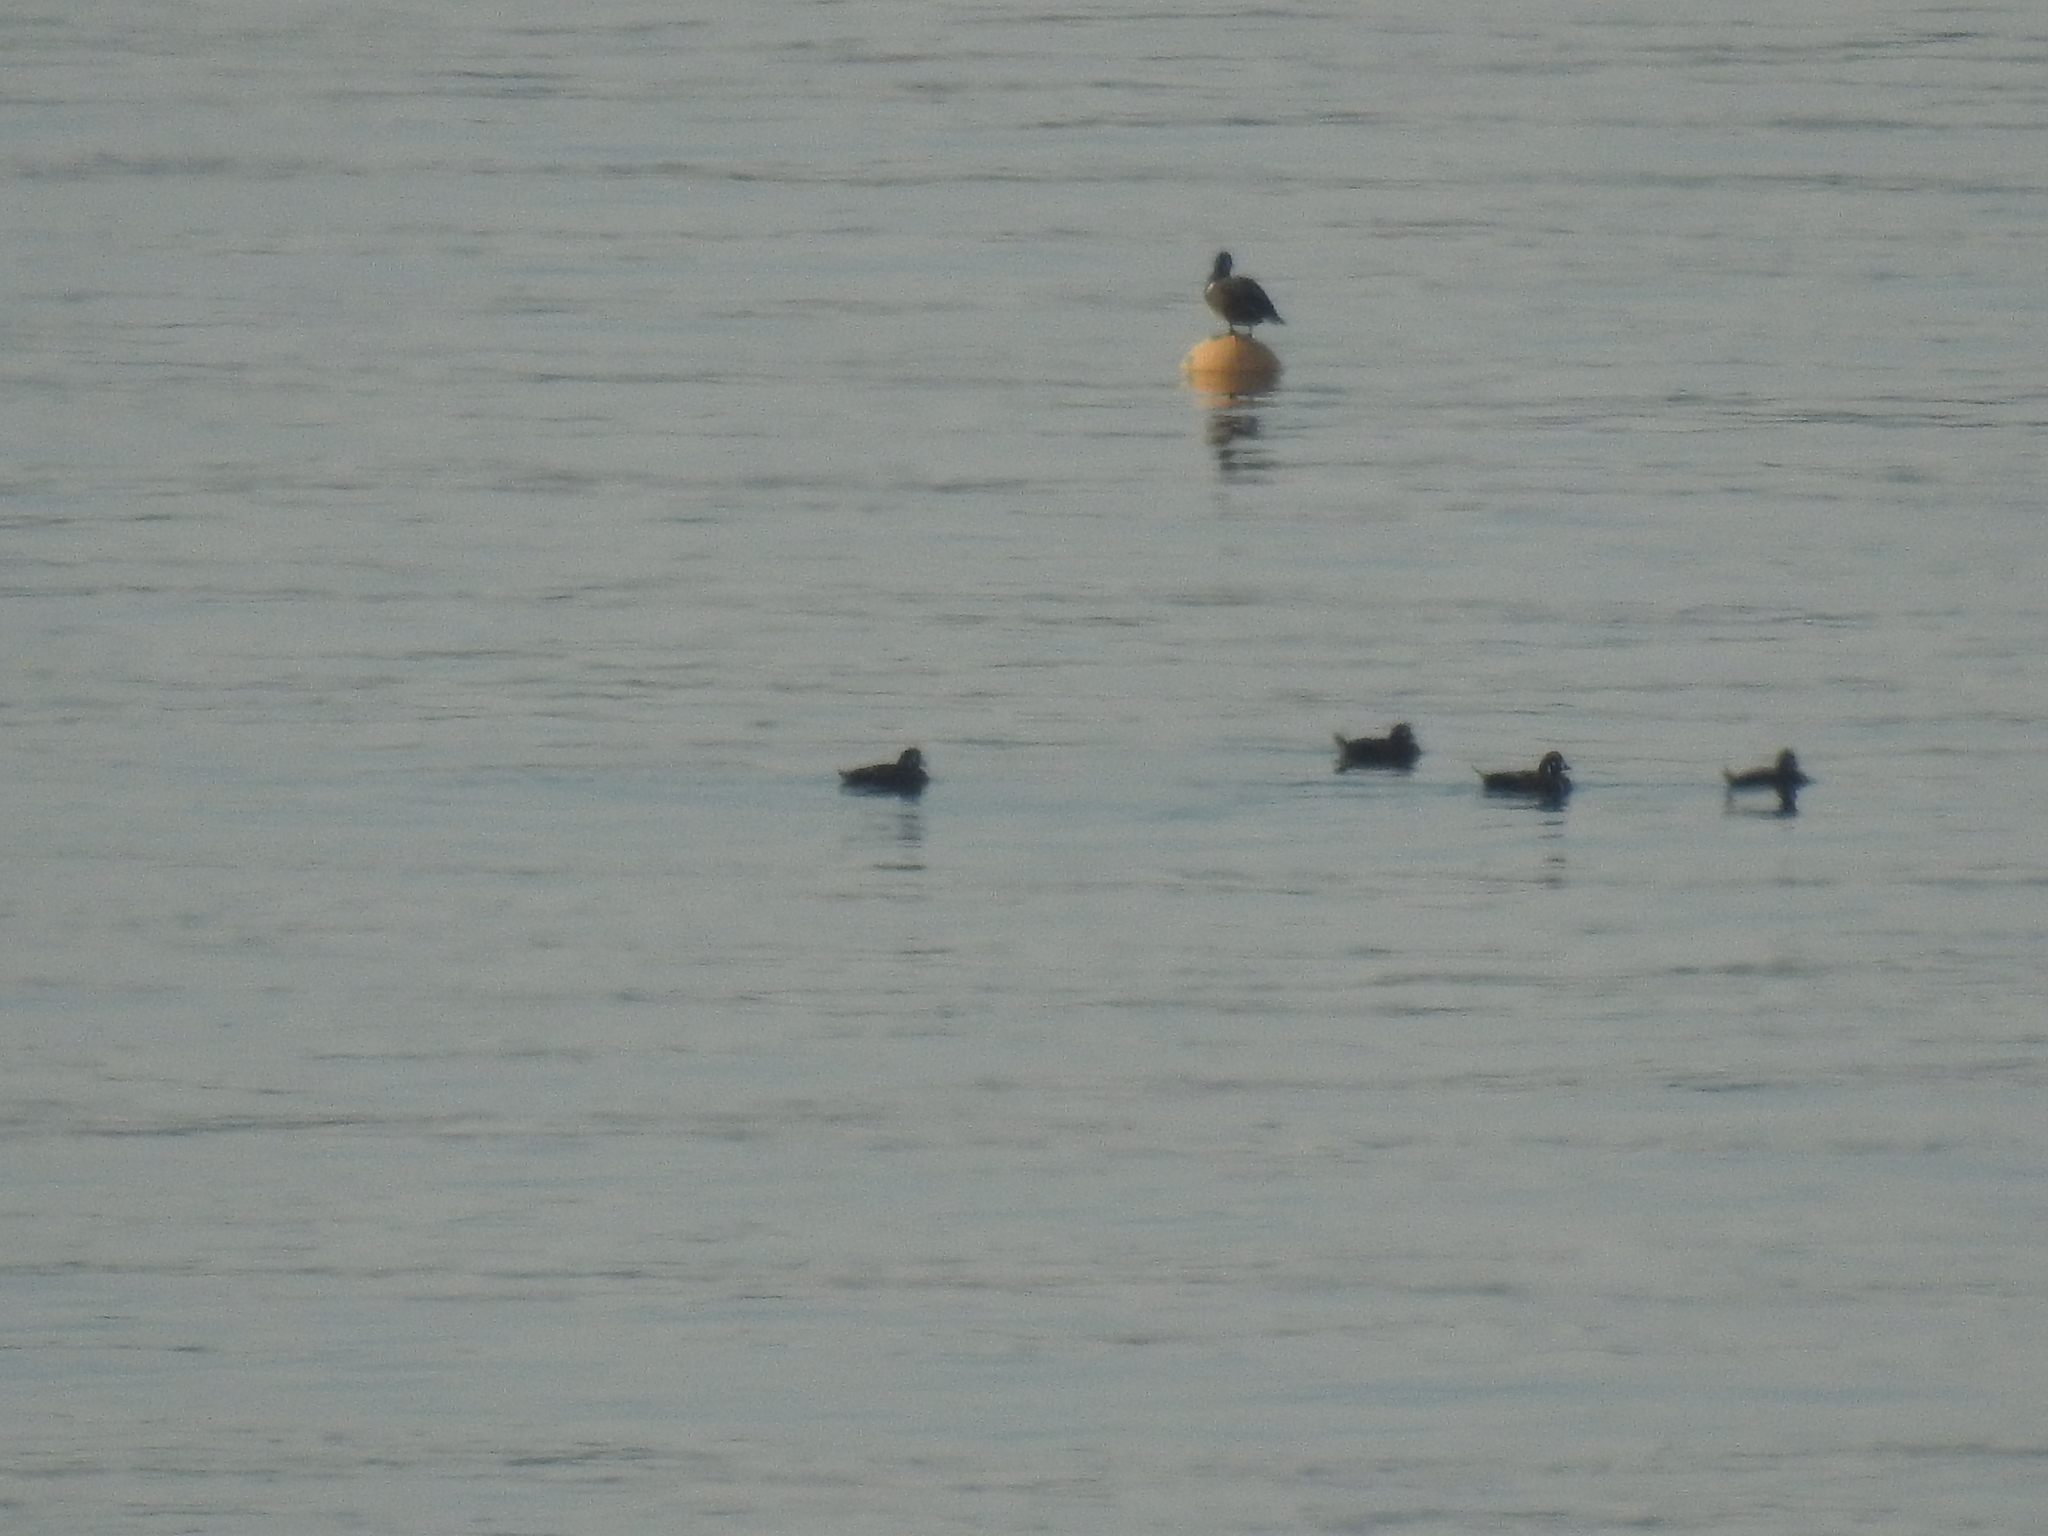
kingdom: Animalia
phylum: Chordata
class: Aves
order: Anseriformes
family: Anatidae
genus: Histrionicus
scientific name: Histrionicus histrionicus
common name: Harlequin duck
